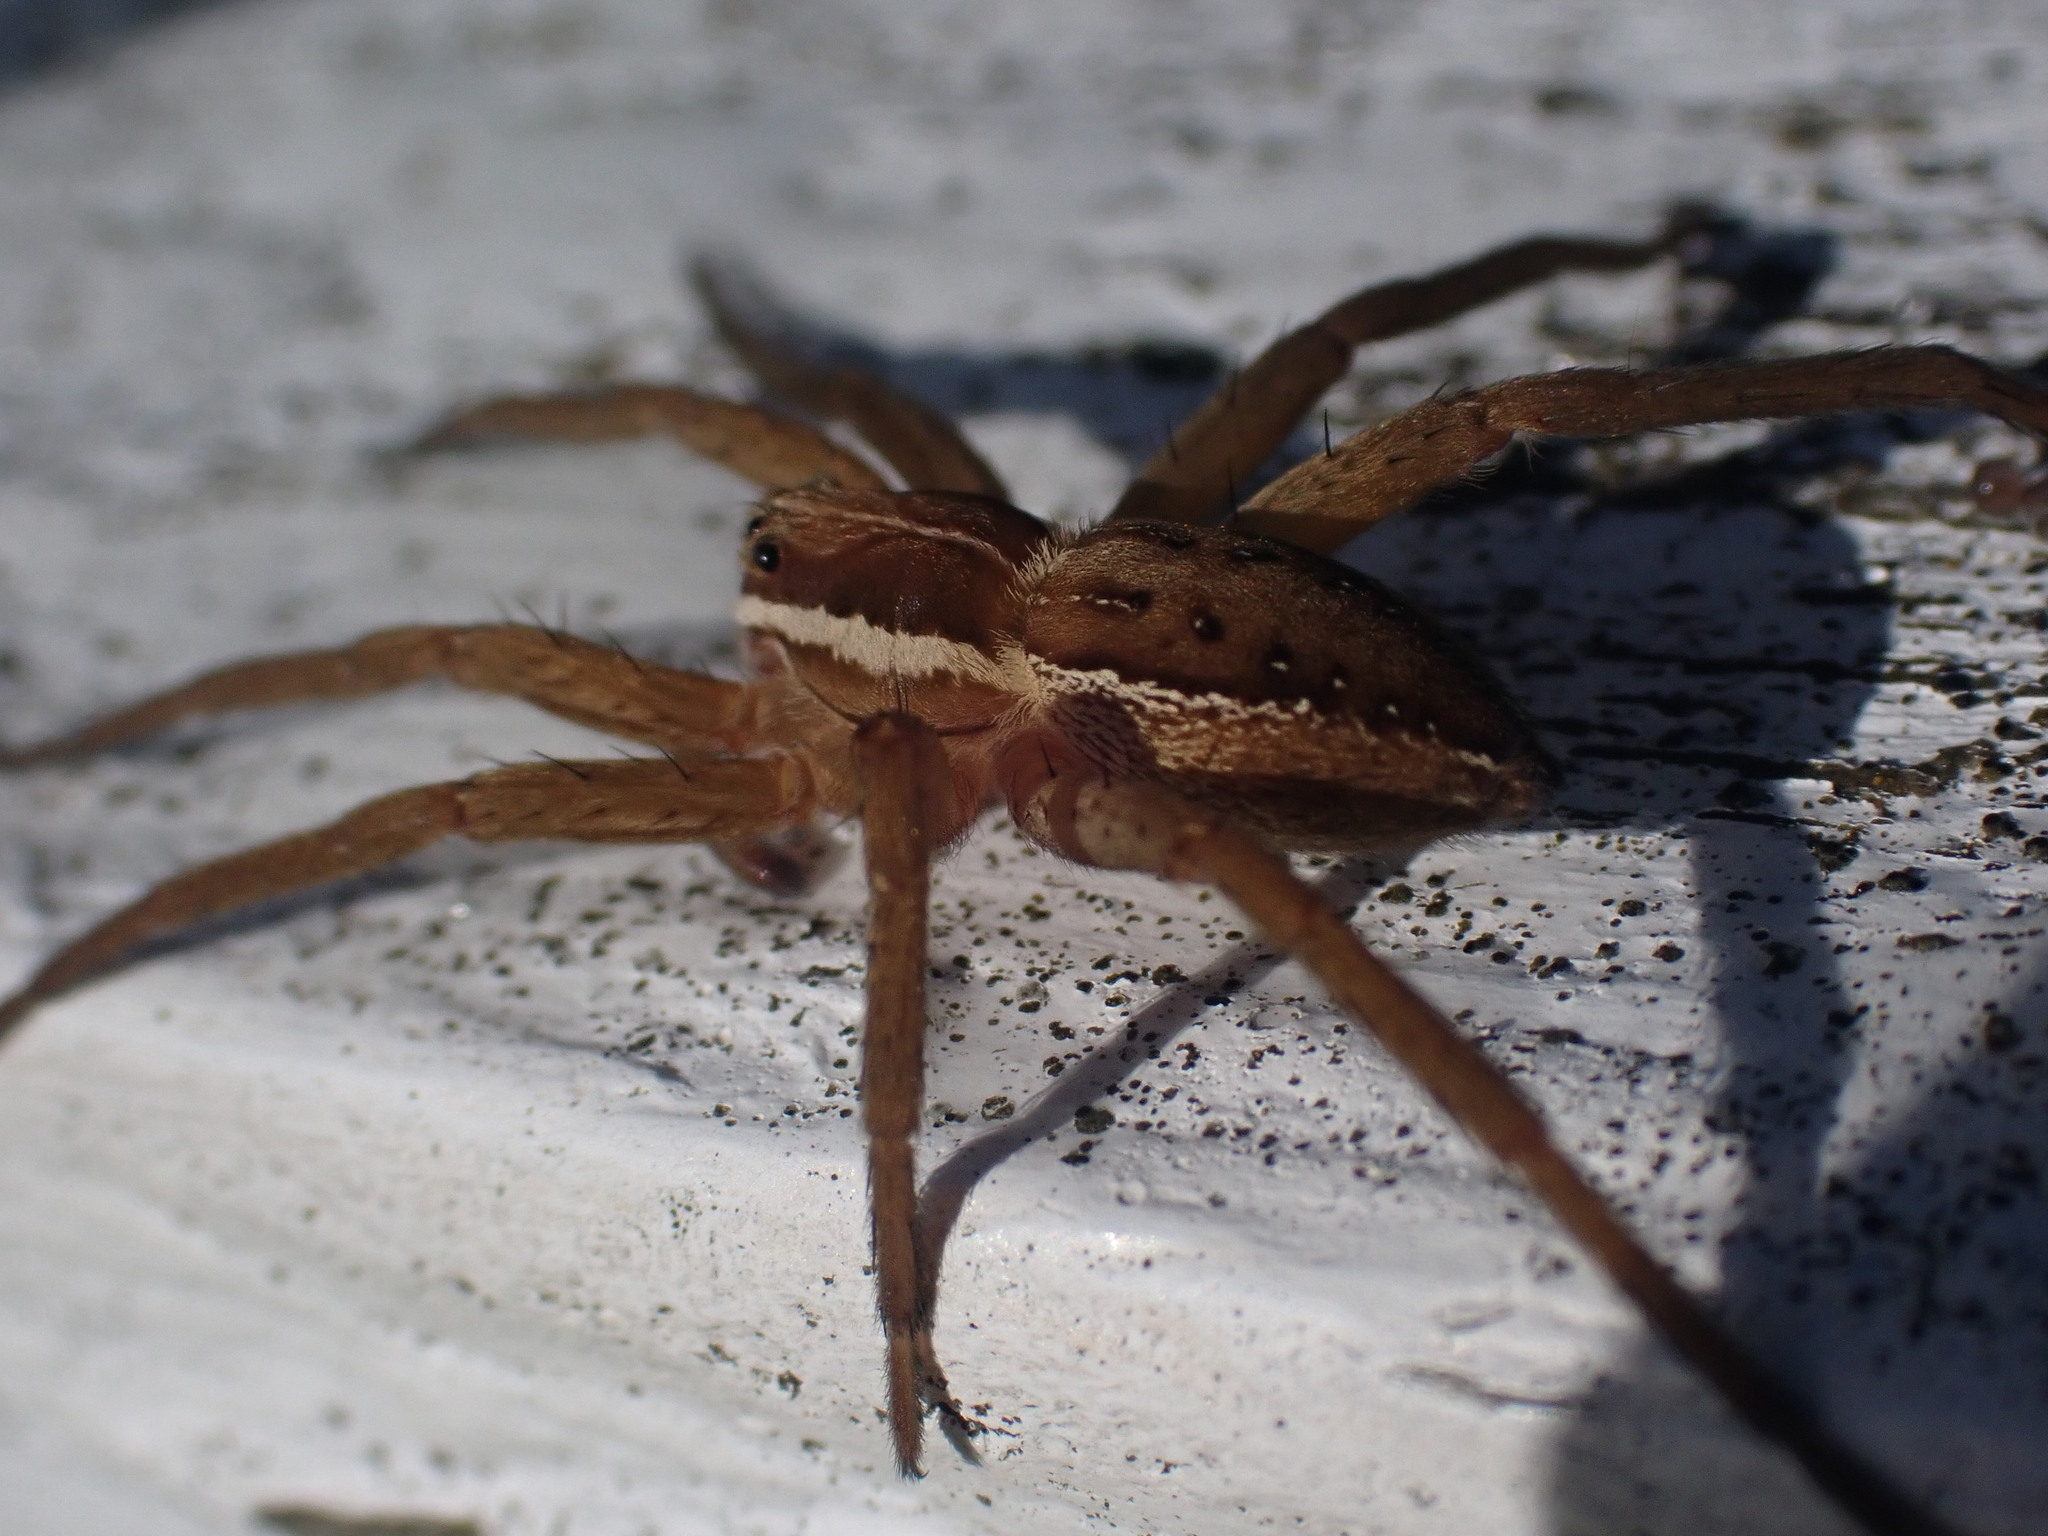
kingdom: Animalia
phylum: Arthropoda
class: Arachnida
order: Araneae
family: Pisauridae
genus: Dolomedes
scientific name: Dolomedes minor
